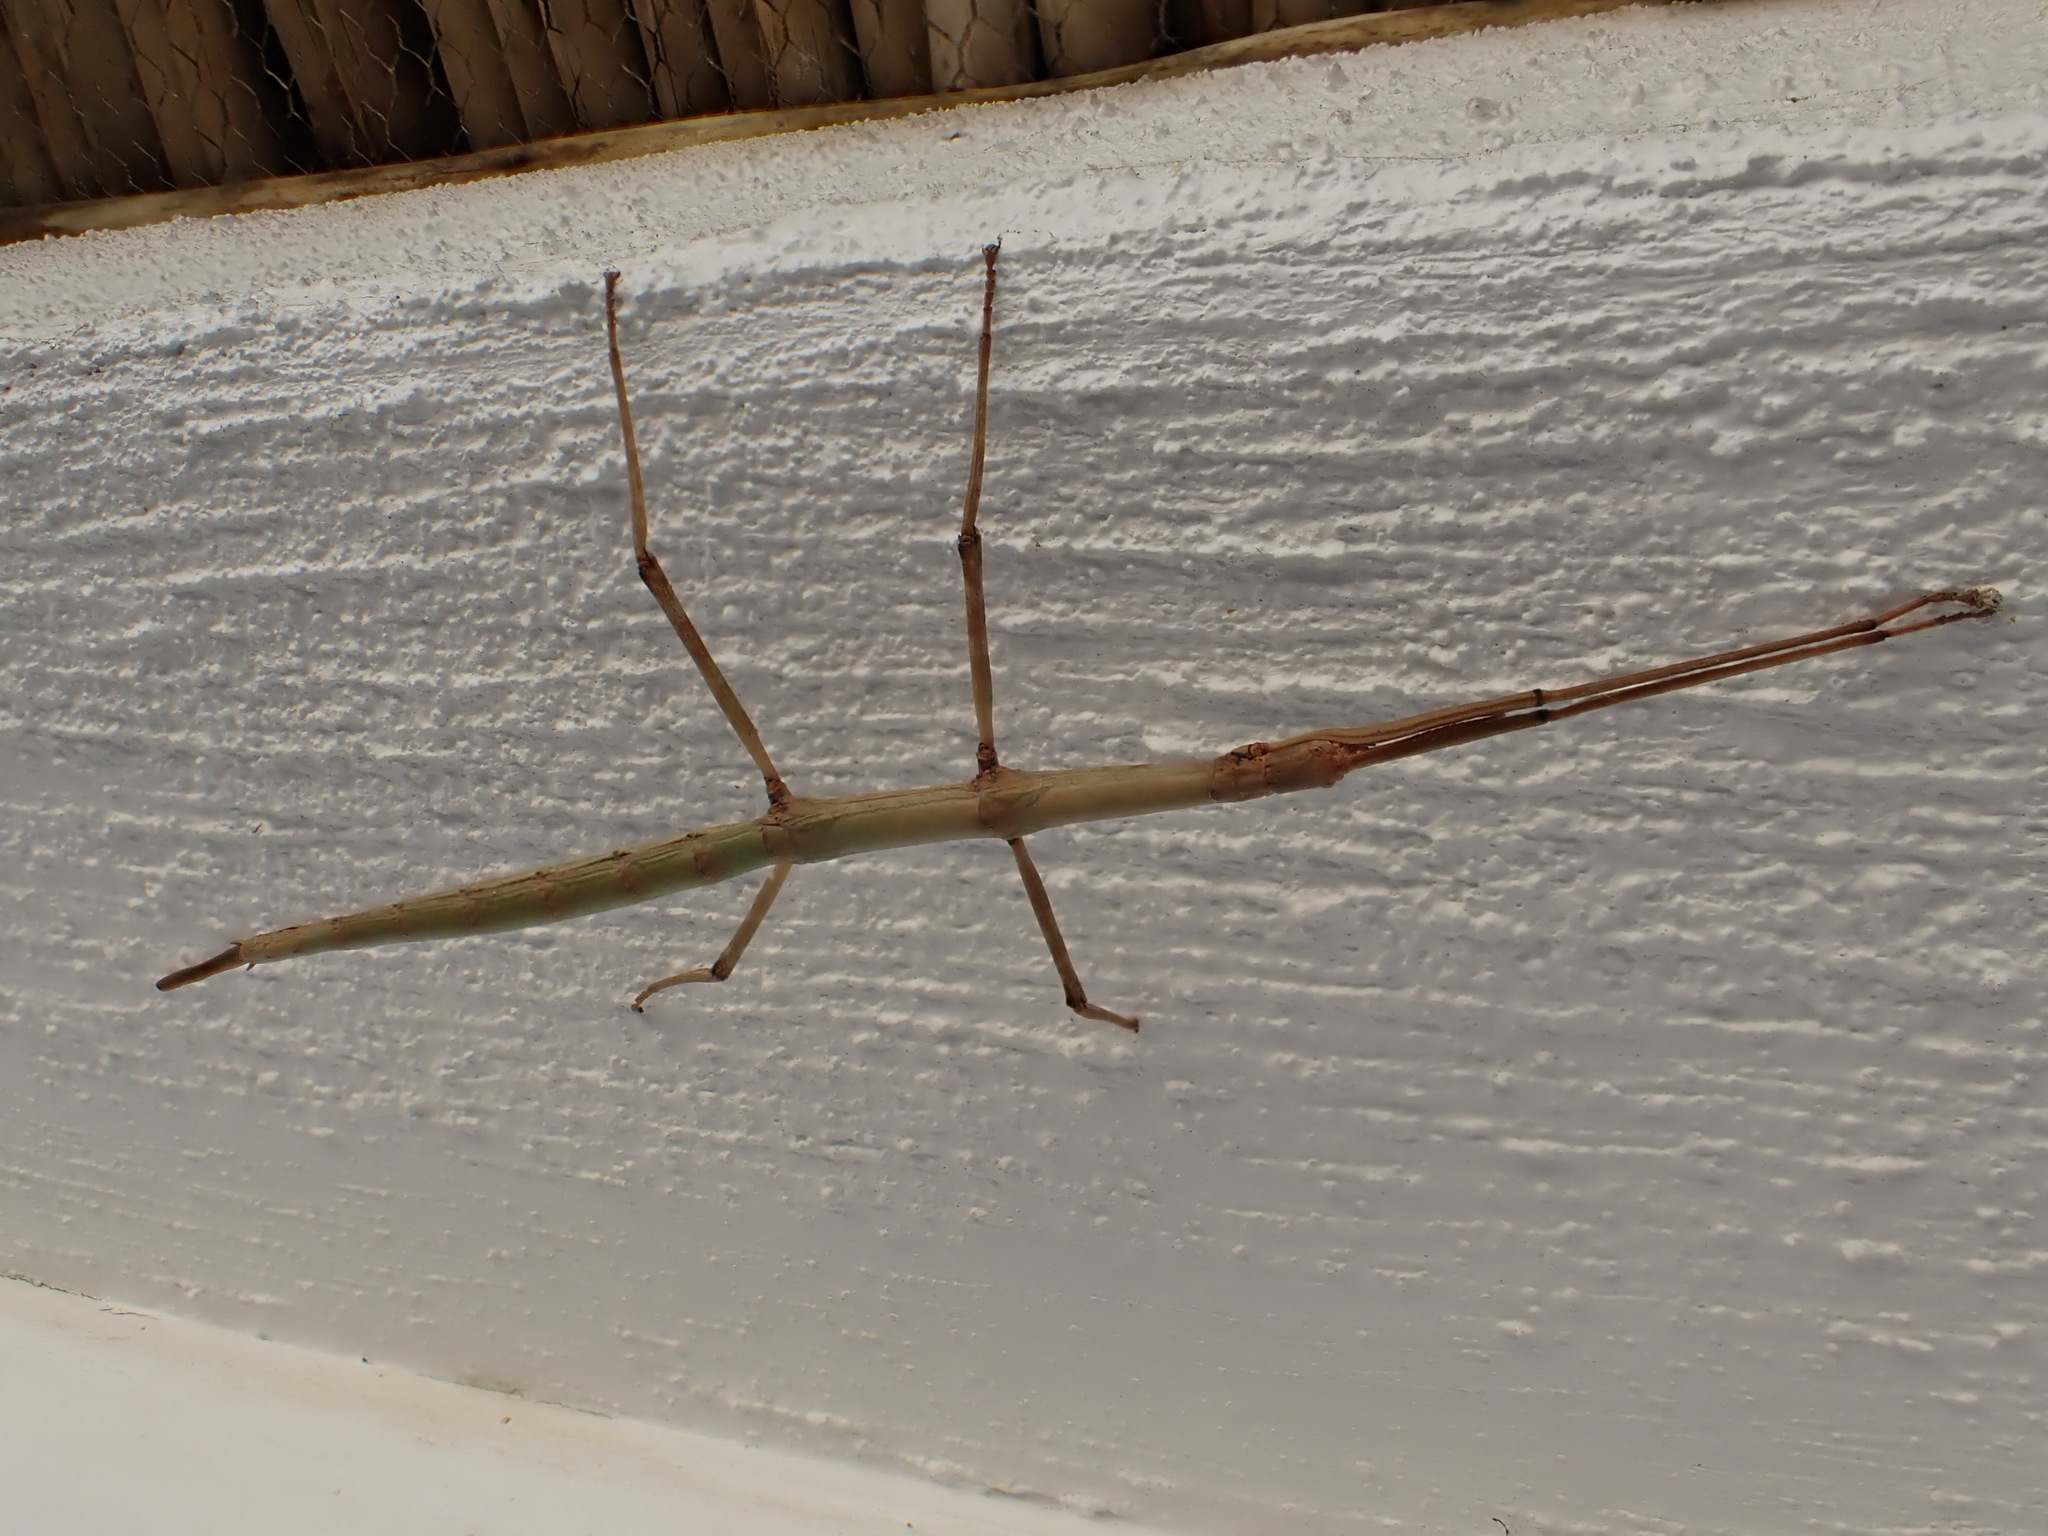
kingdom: Animalia
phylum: Arthropoda
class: Insecta
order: Phasmida
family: Bacillidae
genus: Phalces
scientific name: Phalces brevis
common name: Cape stick insect
